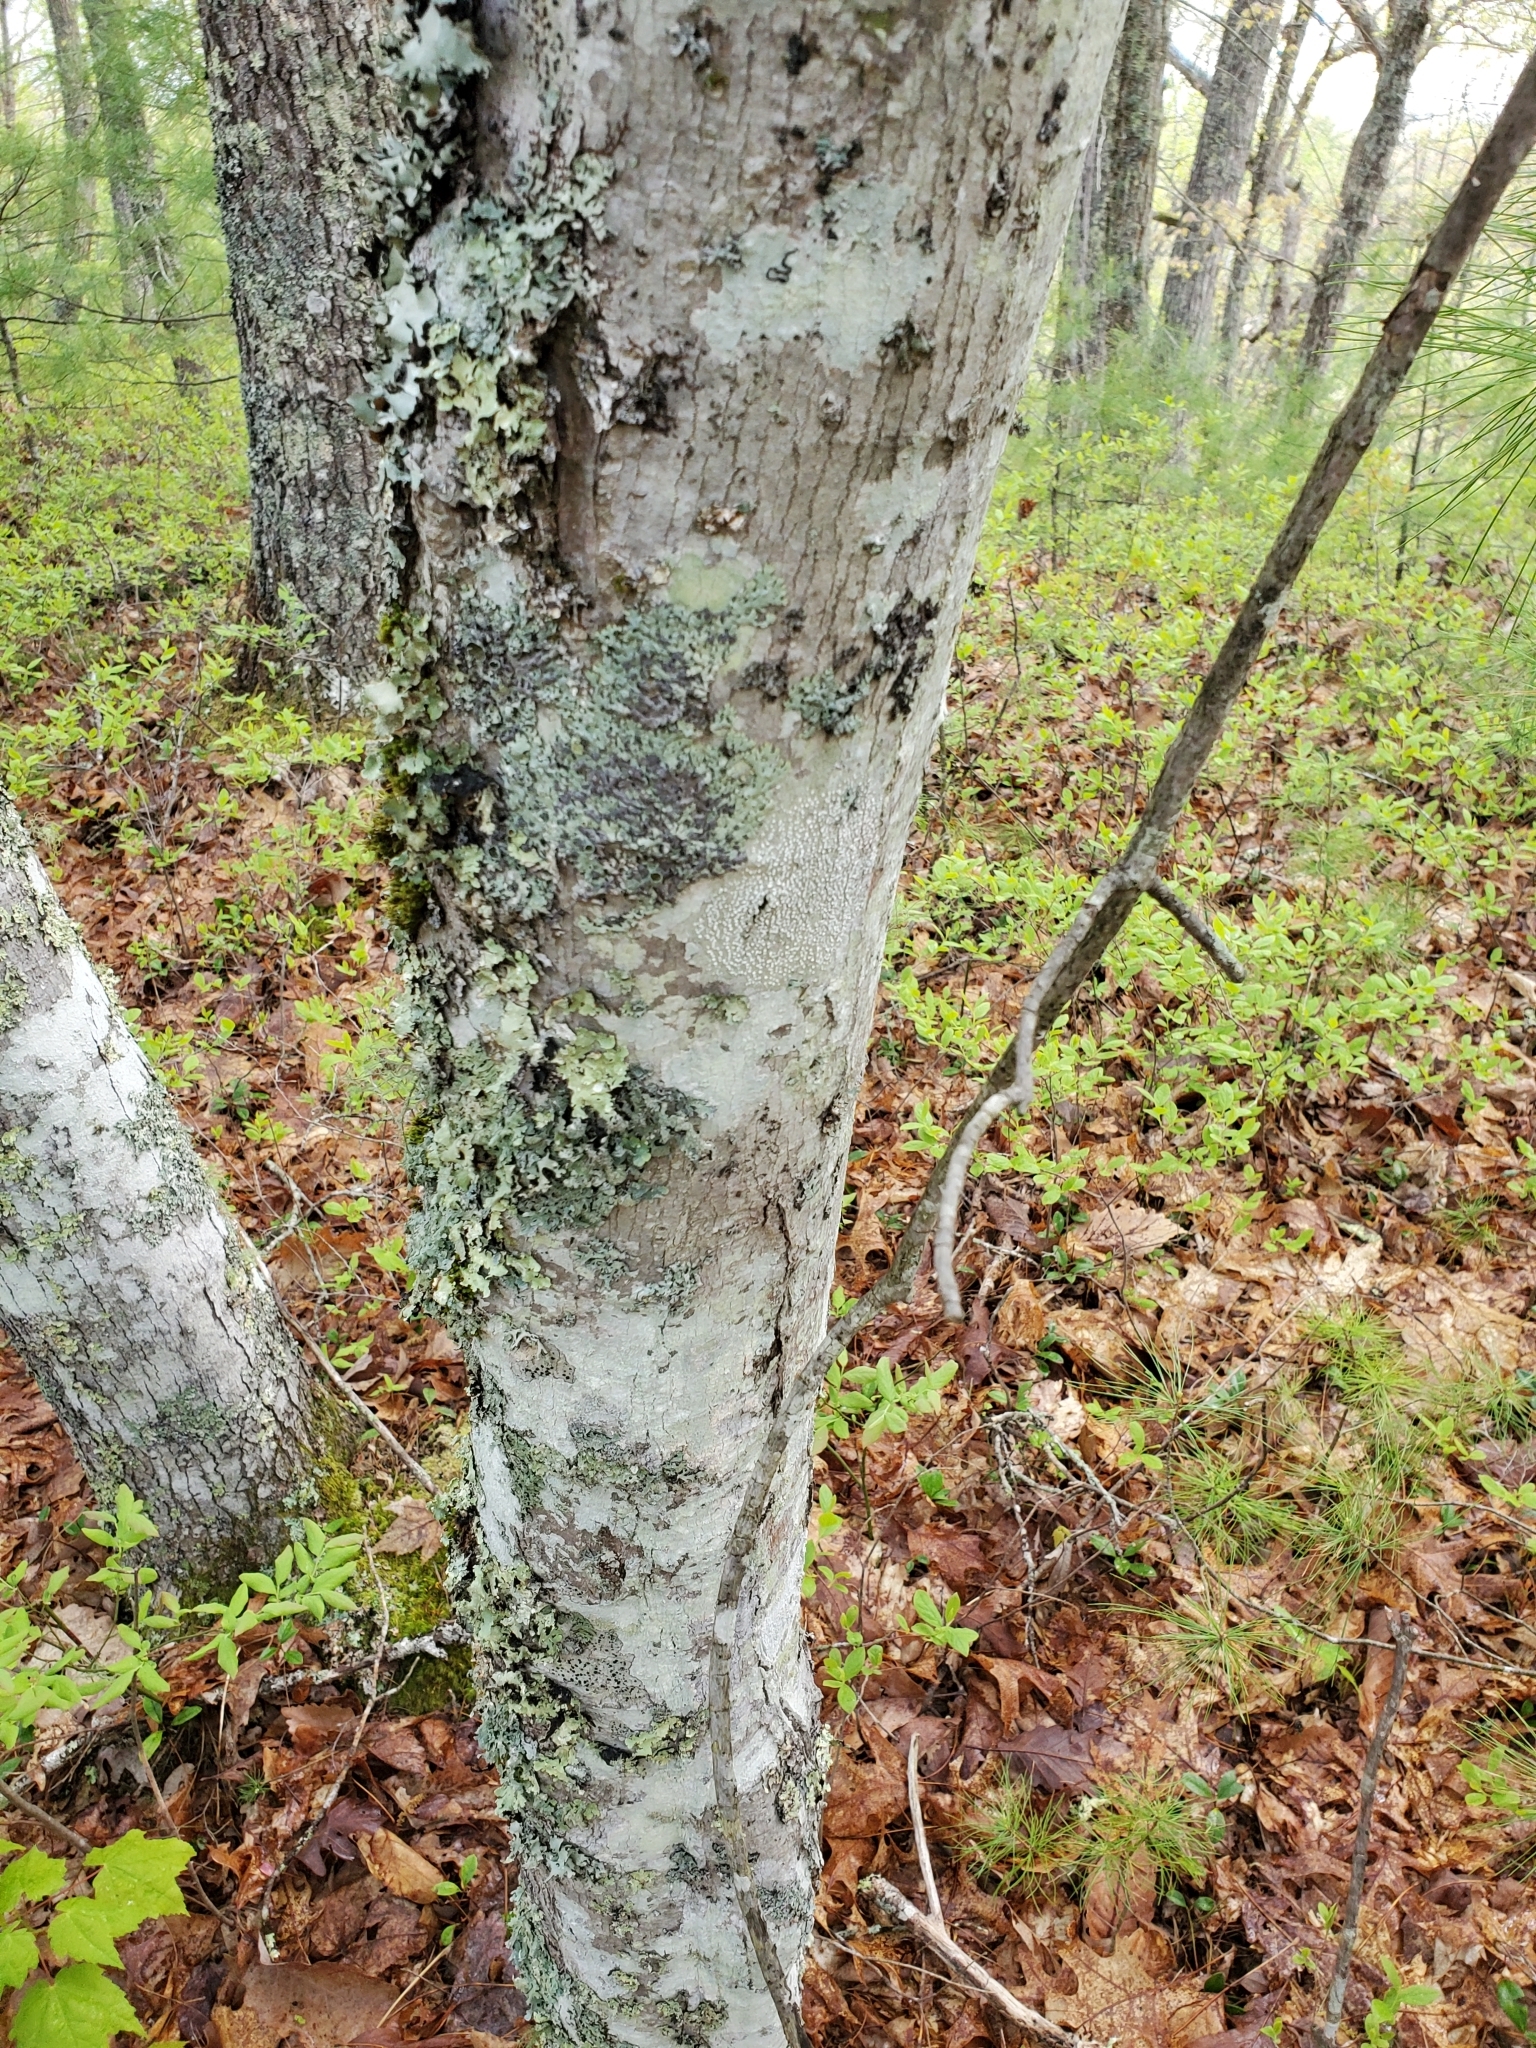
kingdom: Plantae
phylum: Tracheophyta
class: Magnoliopsida
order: Sapindales
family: Sapindaceae
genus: Acer
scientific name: Acer rubrum
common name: Red maple
